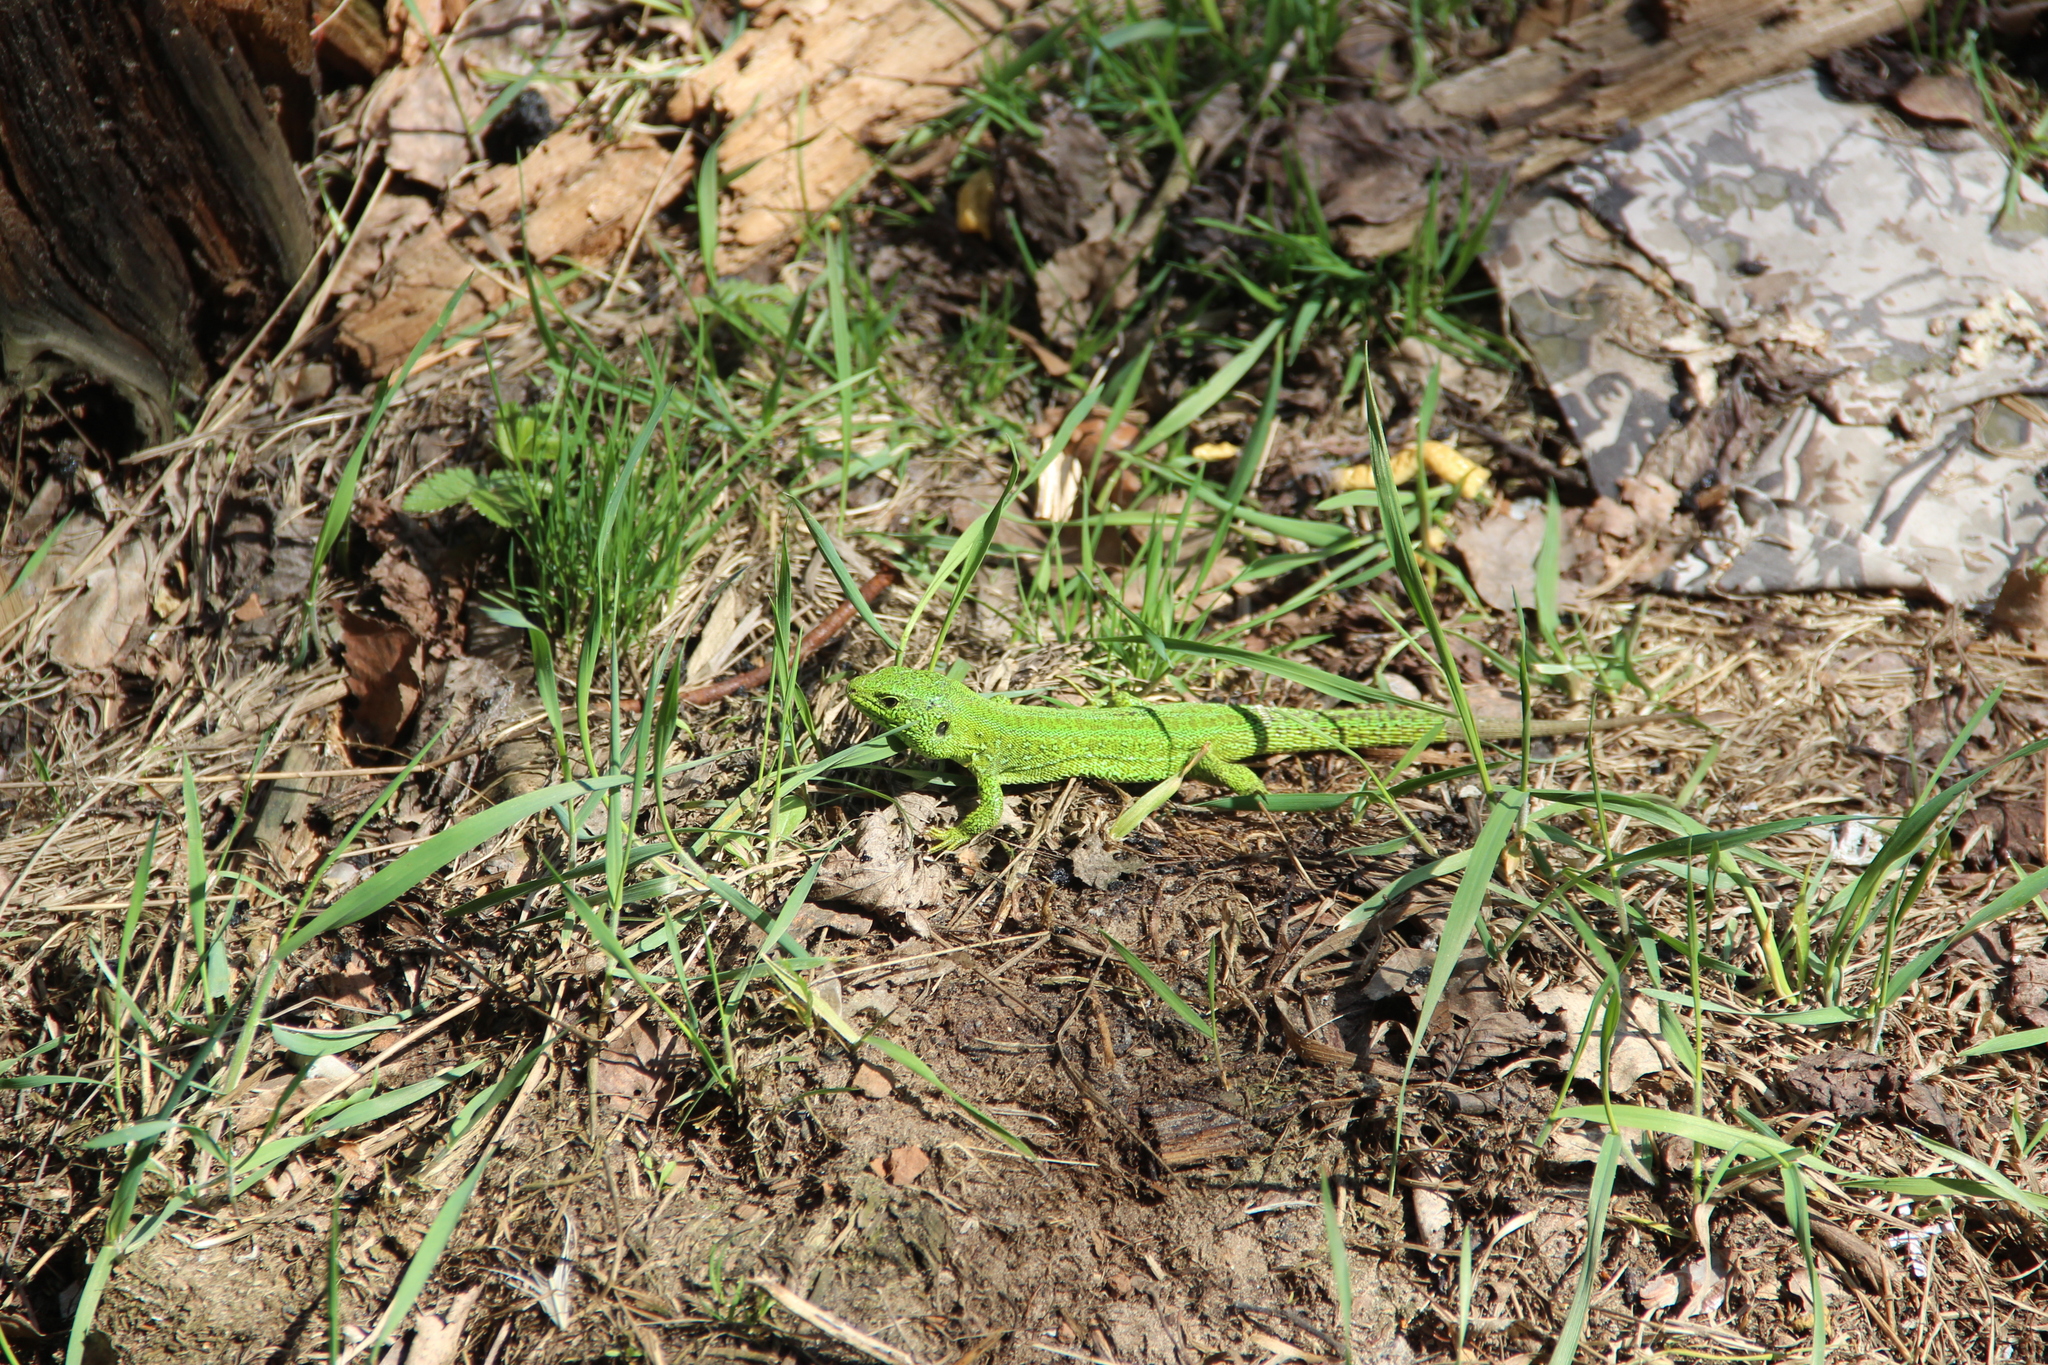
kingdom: Animalia
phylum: Chordata
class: Squamata
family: Lacertidae
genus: Lacerta
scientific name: Lacerta agilis
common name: Sand lizard
